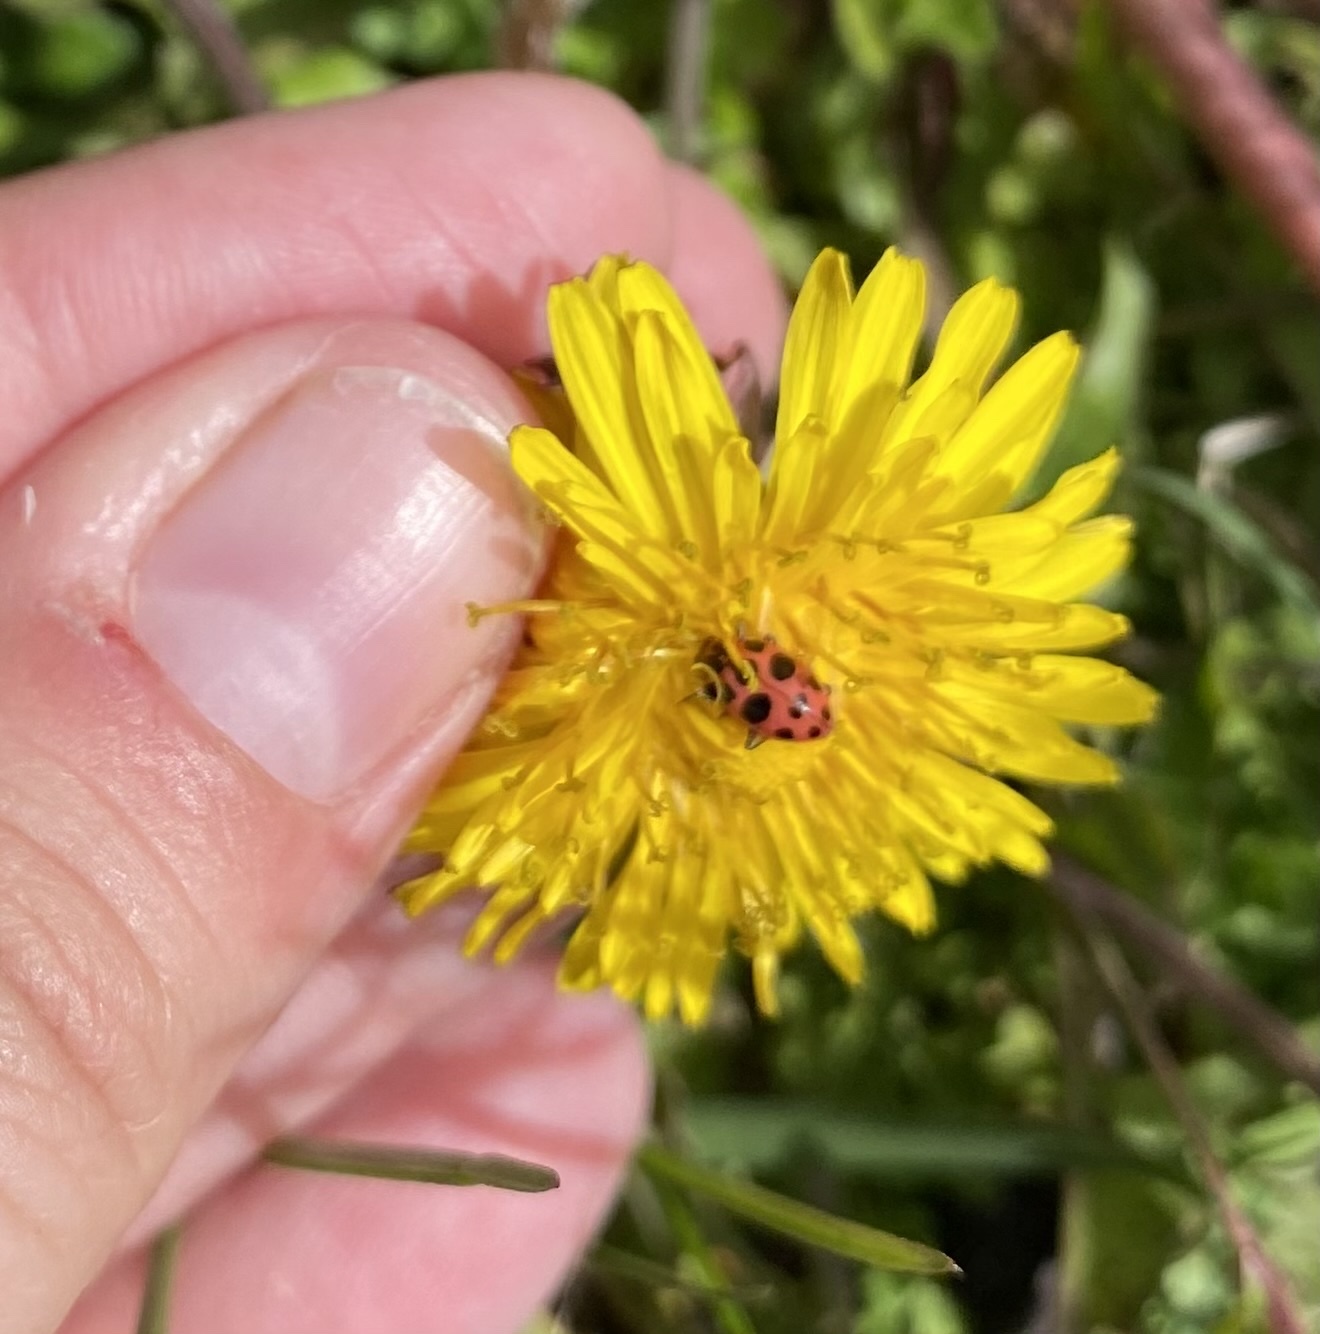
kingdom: Animalia
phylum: Arthropoda
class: Insecta
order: Coleoptera
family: Coccinellidae
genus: Coleomegilla
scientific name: Coleomegilla maculata
